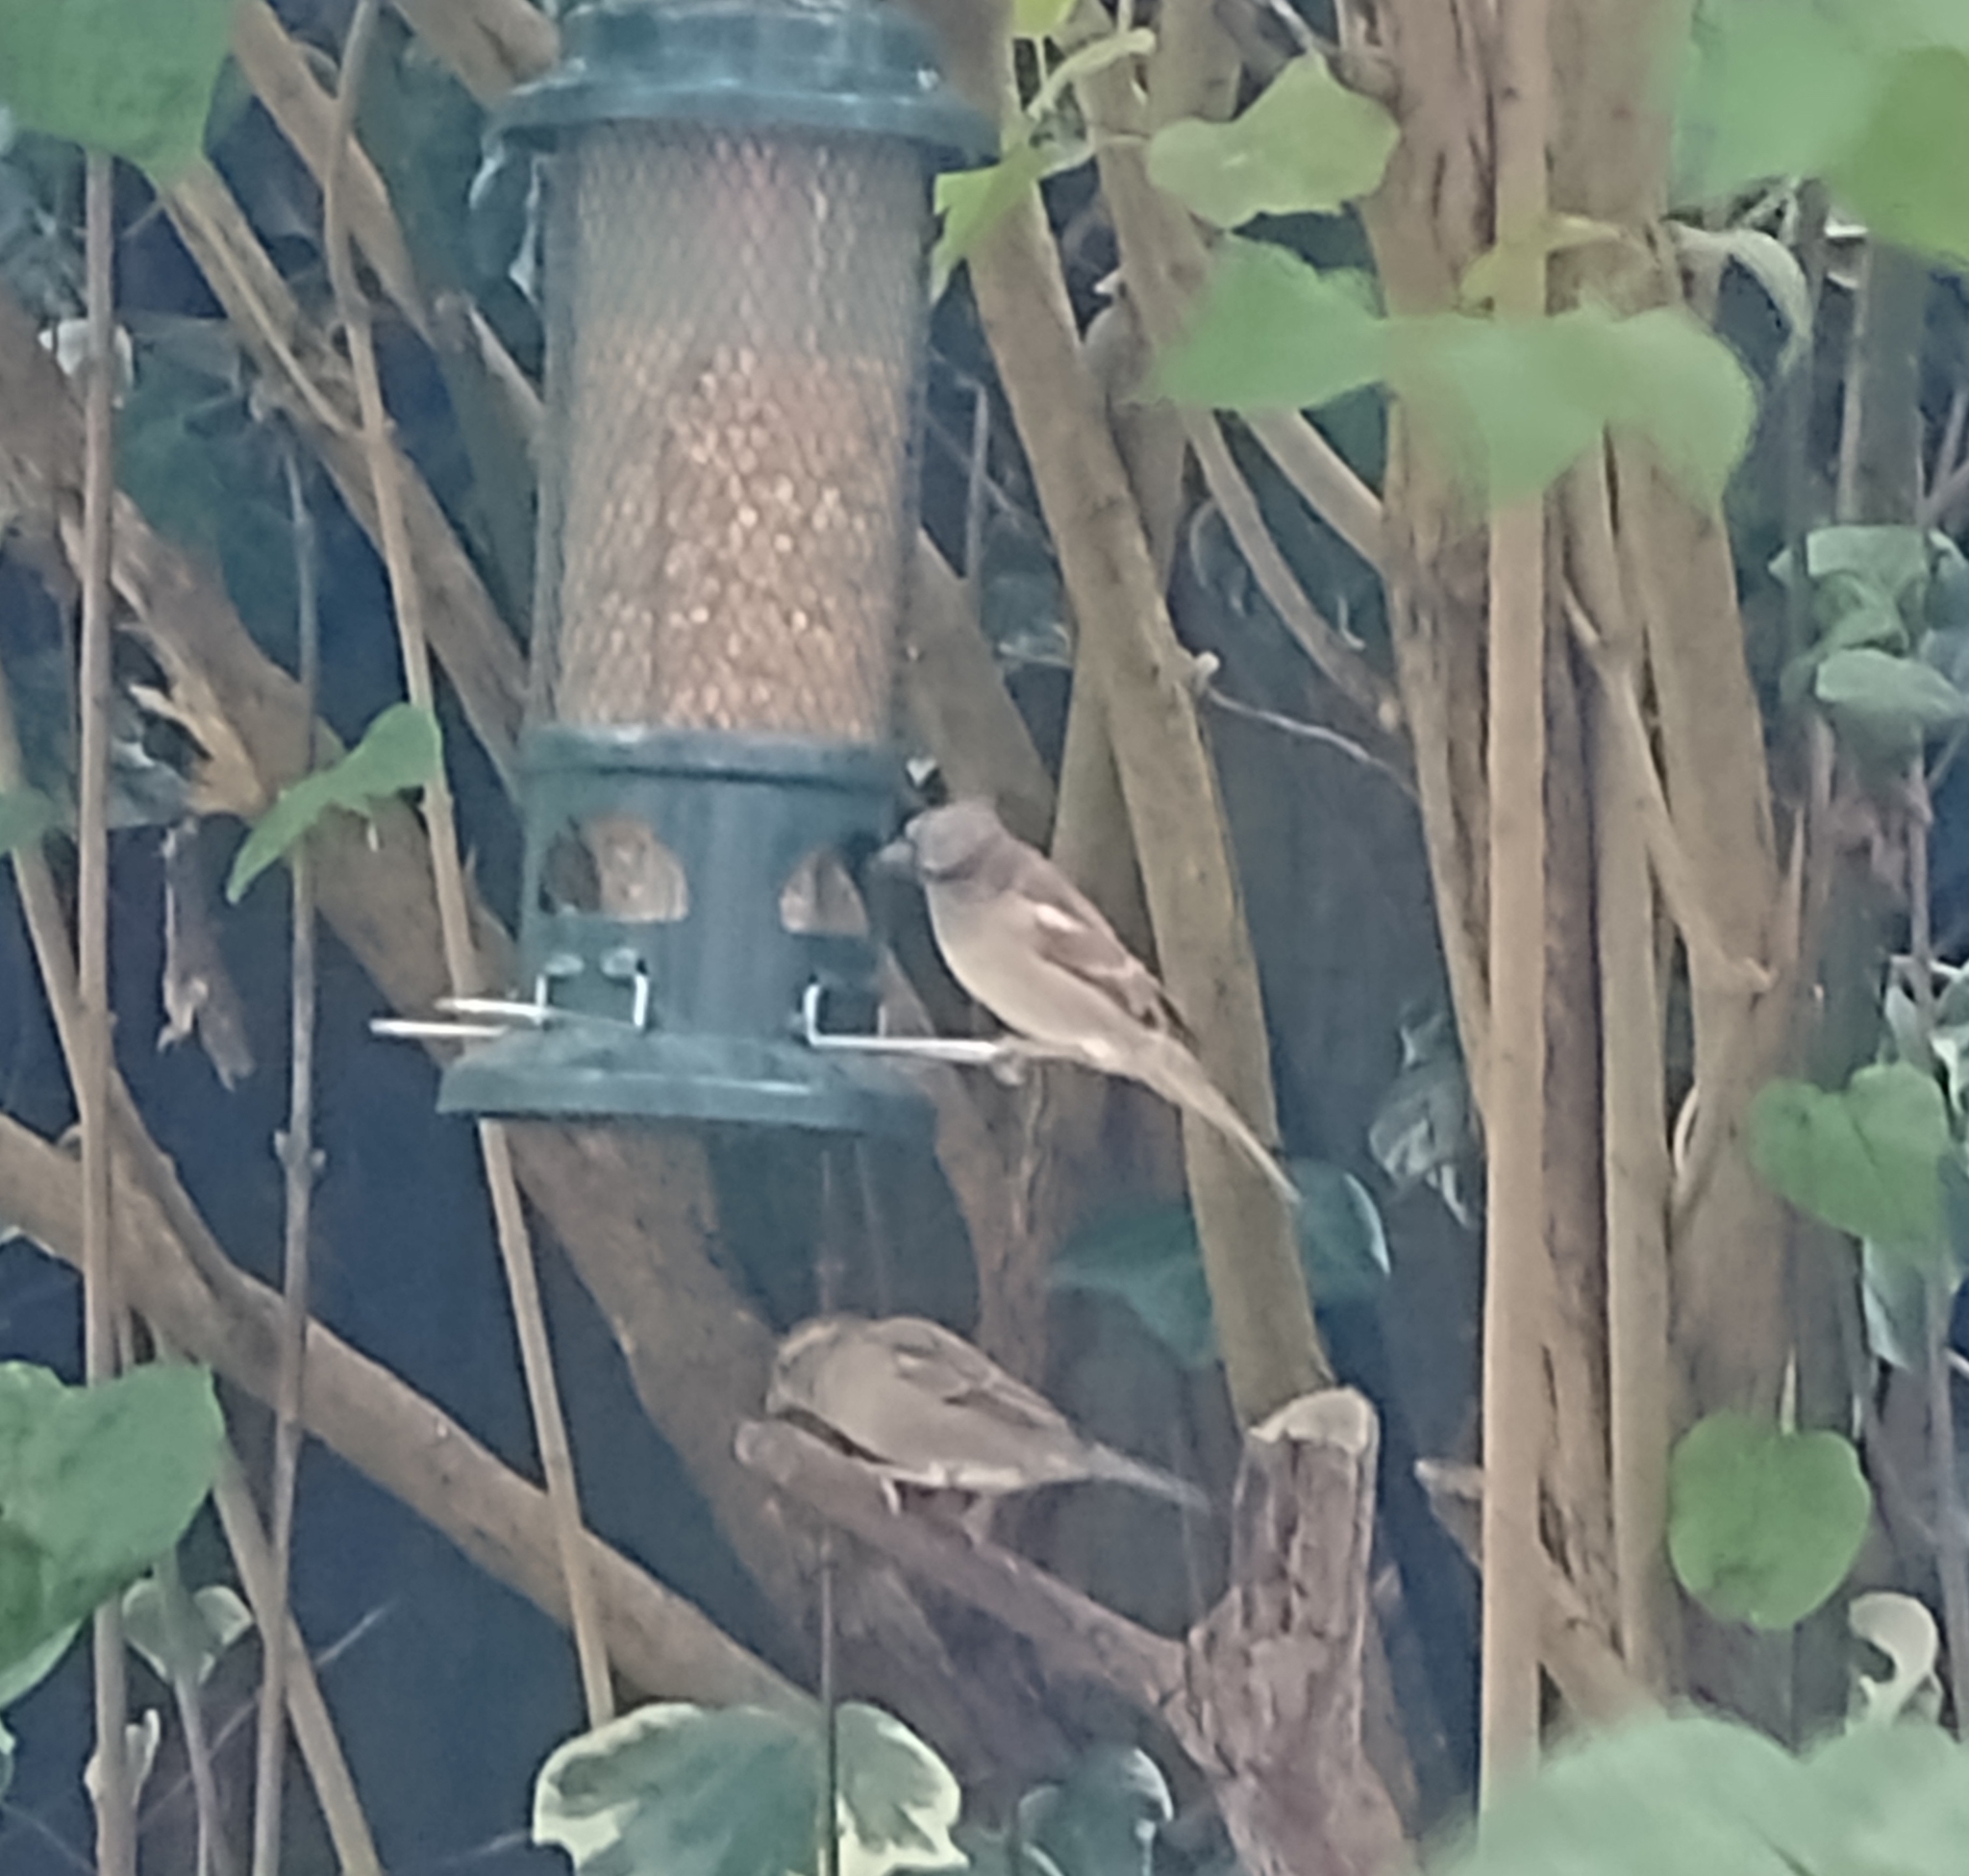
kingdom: Animalia
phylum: Chordata
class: Aves
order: Passeriformes
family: Passeridae
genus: Passer
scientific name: Passer domesticus
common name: House sparrow
